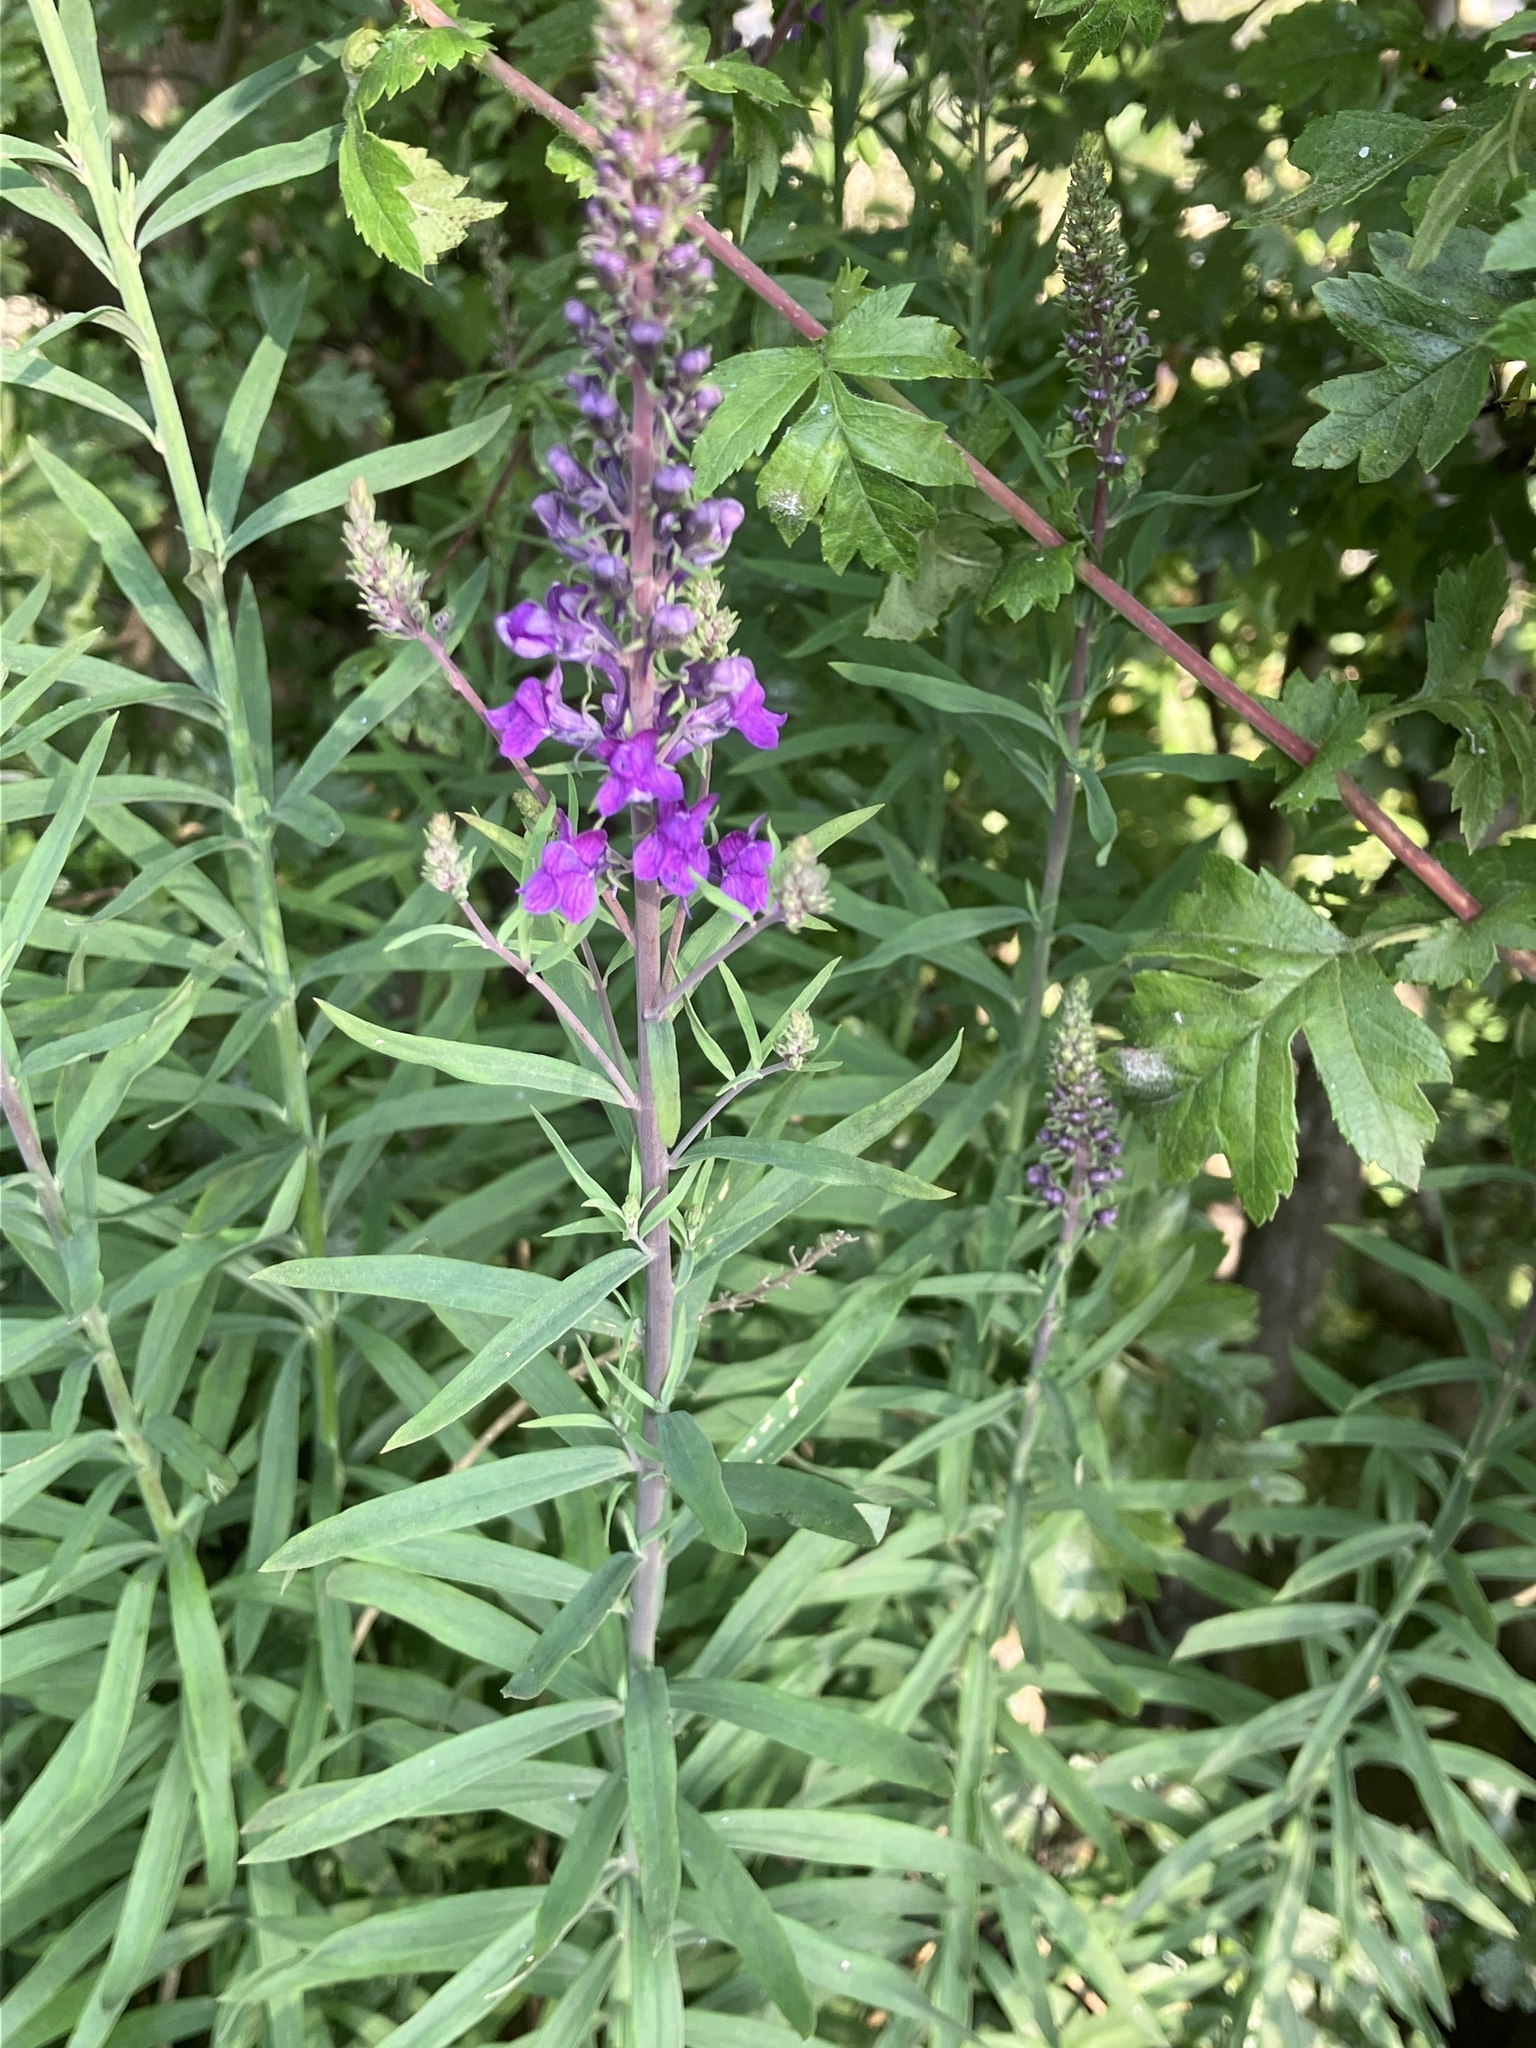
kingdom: Plantae
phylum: Tracheophyta
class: Magnoliopsida
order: Lamiales
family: Plantaginaceae
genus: Linaria
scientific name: Linaria purpurea
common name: Purple toadflax
